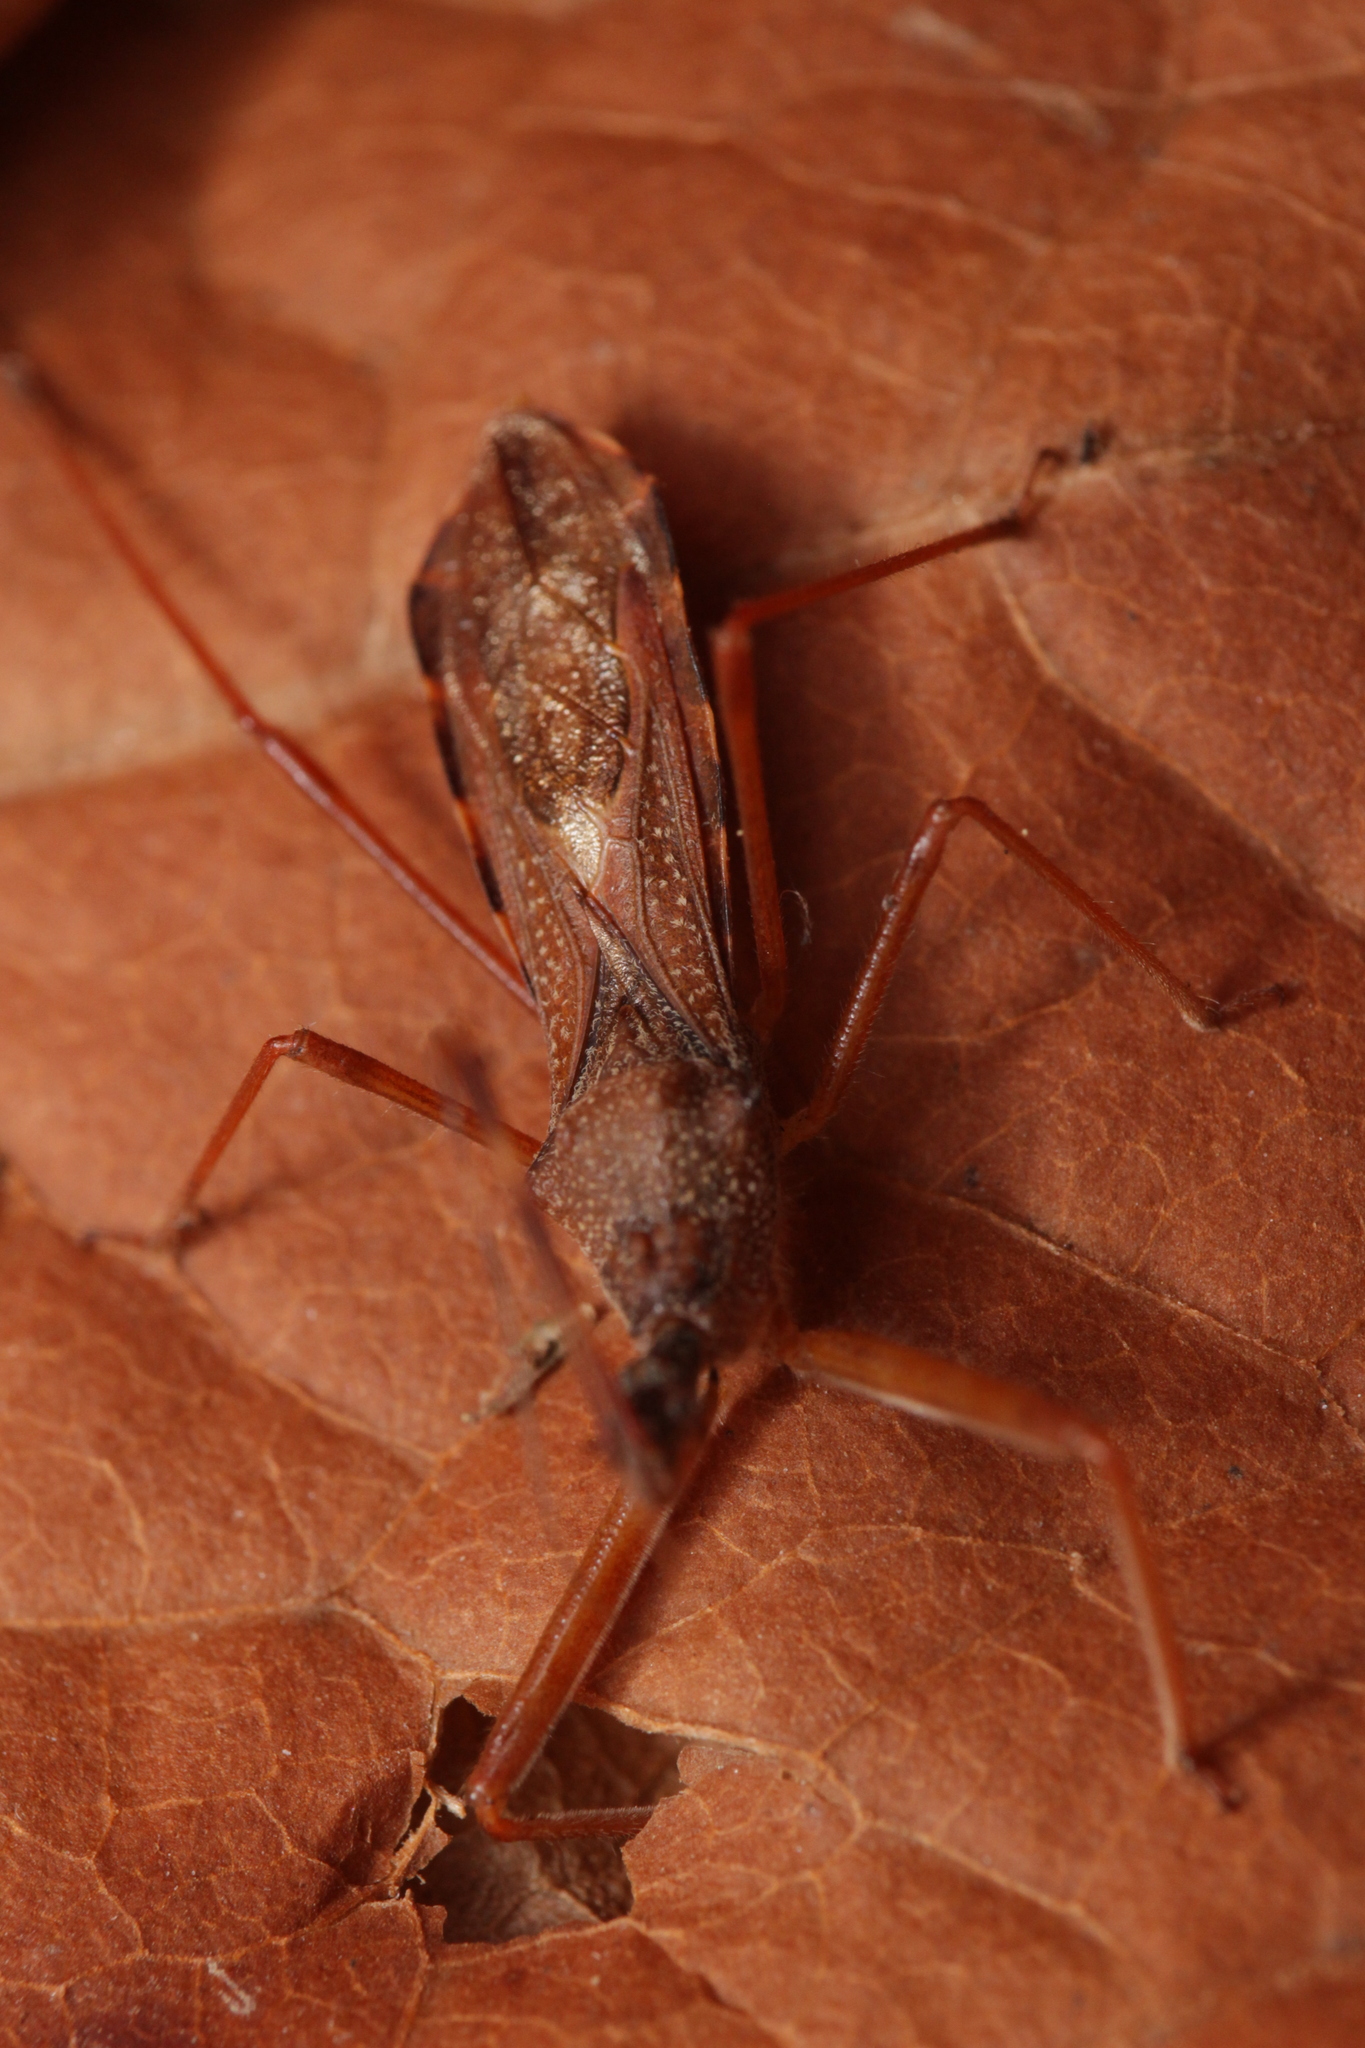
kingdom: Animalia
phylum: Arthropoda
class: Insecta
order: Hemiptera
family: Reduviidae
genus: Nagusta
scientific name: Nagusta goedelii
